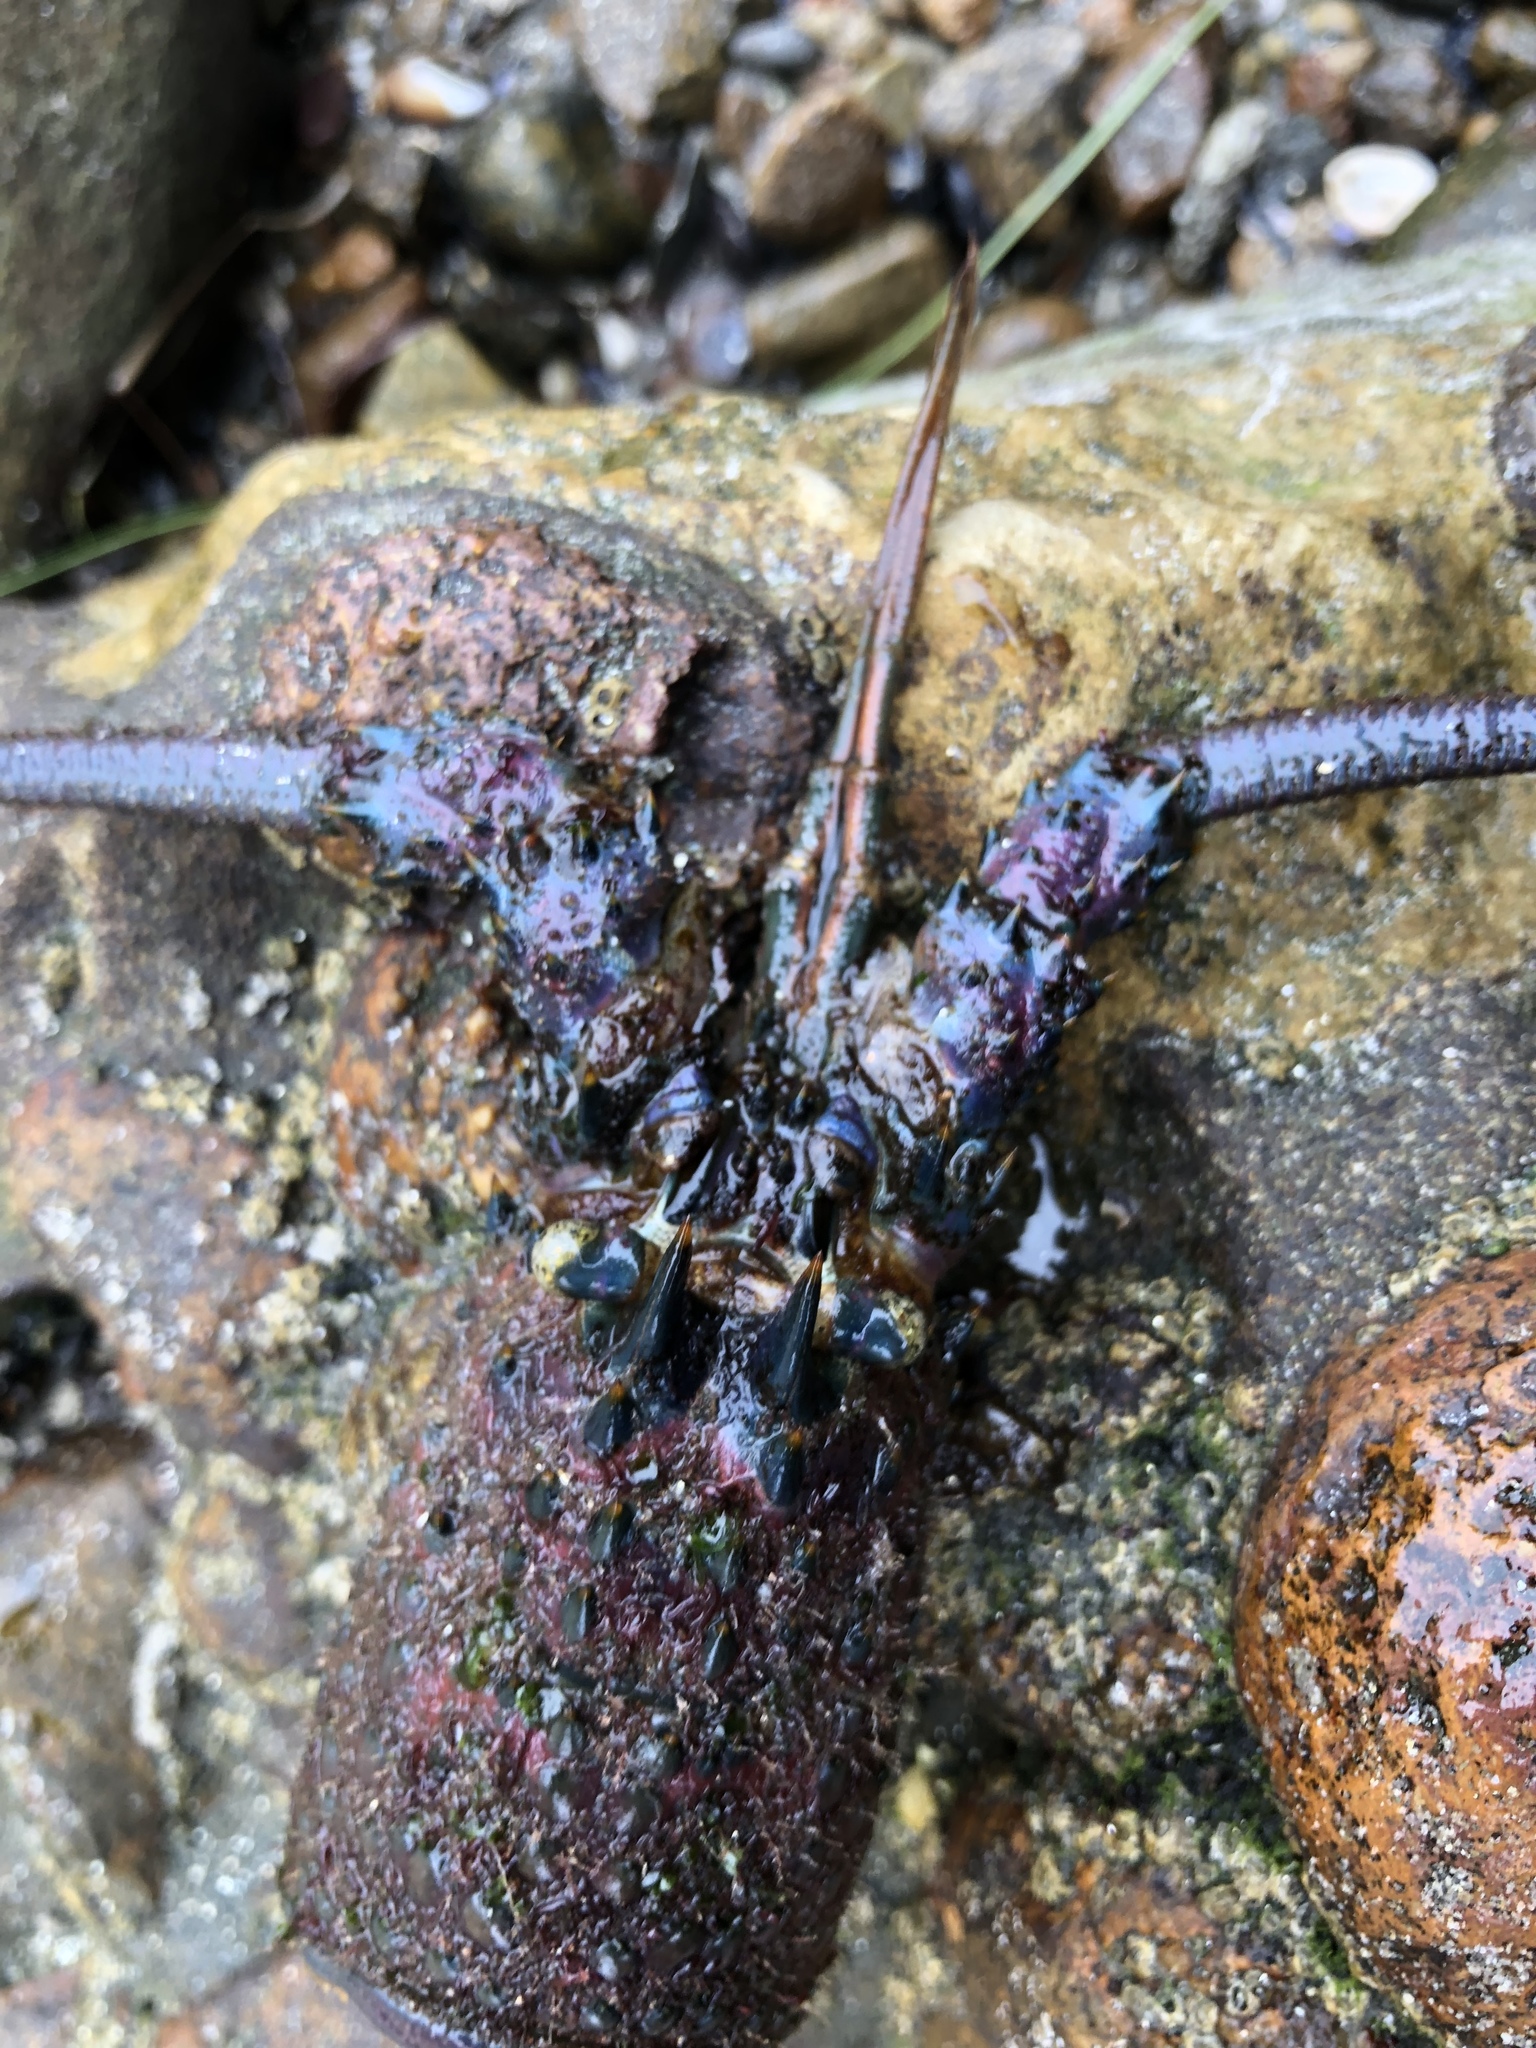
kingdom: Animalia
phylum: Arthropoda
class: Malacostraca
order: Decapoda
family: Palinuridae
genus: Panulirus
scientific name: Panulirus interruptus
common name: California spiny lobster
